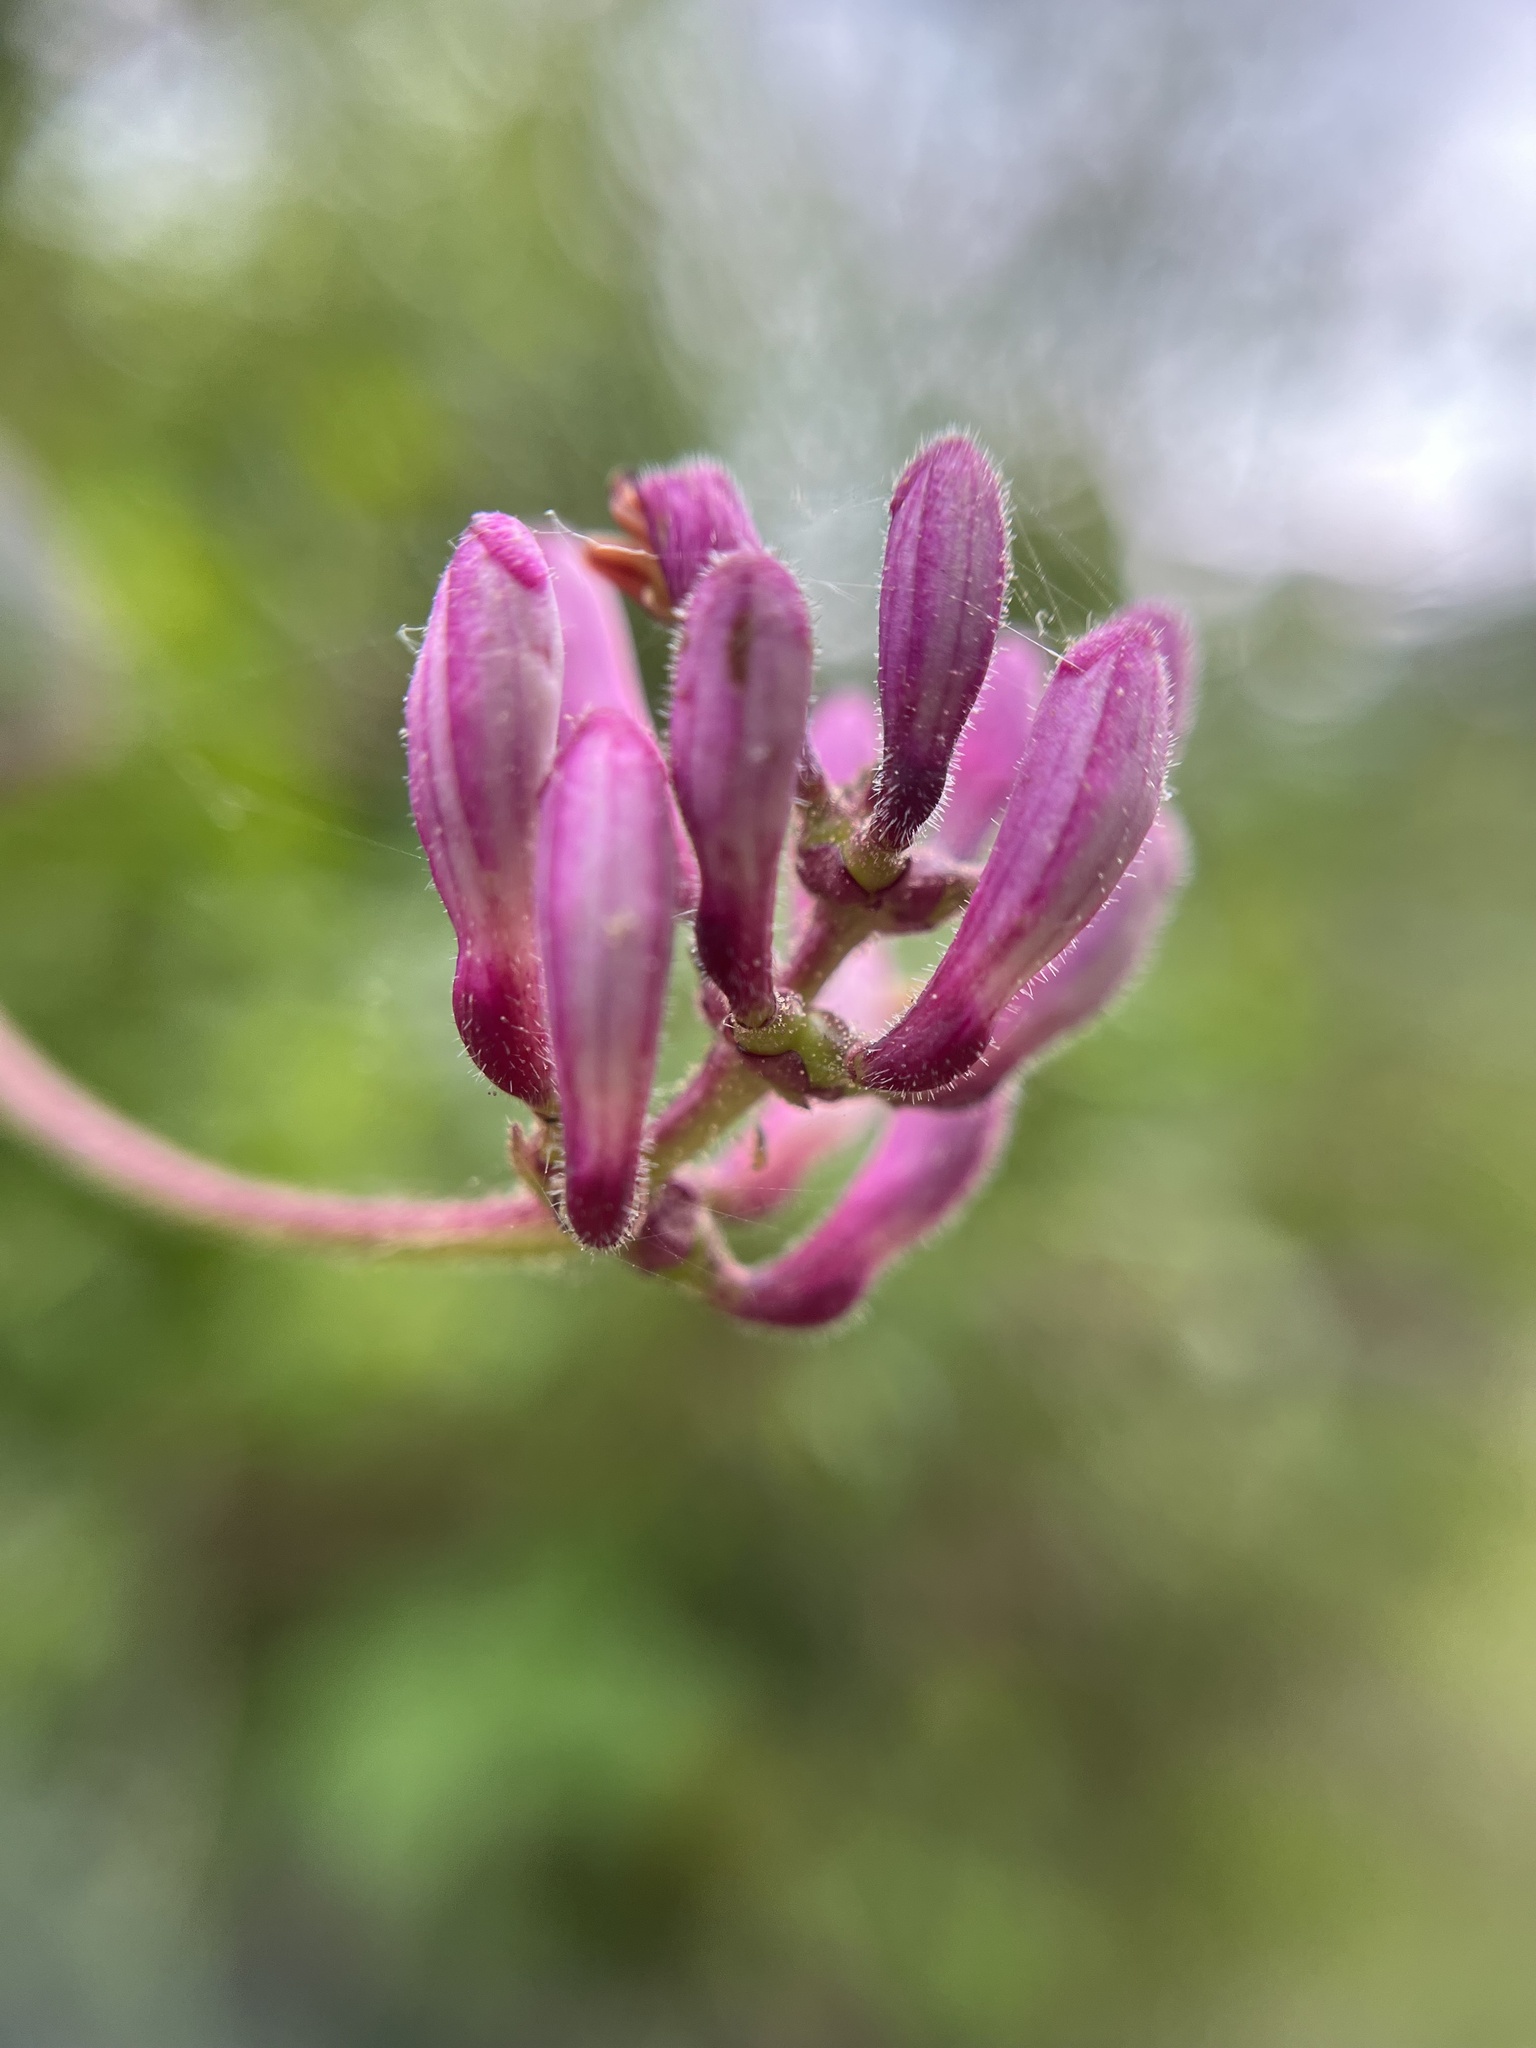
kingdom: Plantae
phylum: Tracheophyta
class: Magnoliopsida
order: Dipsacales
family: Caprifoliaceae
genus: Lonicera
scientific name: Lonicera hispidula
